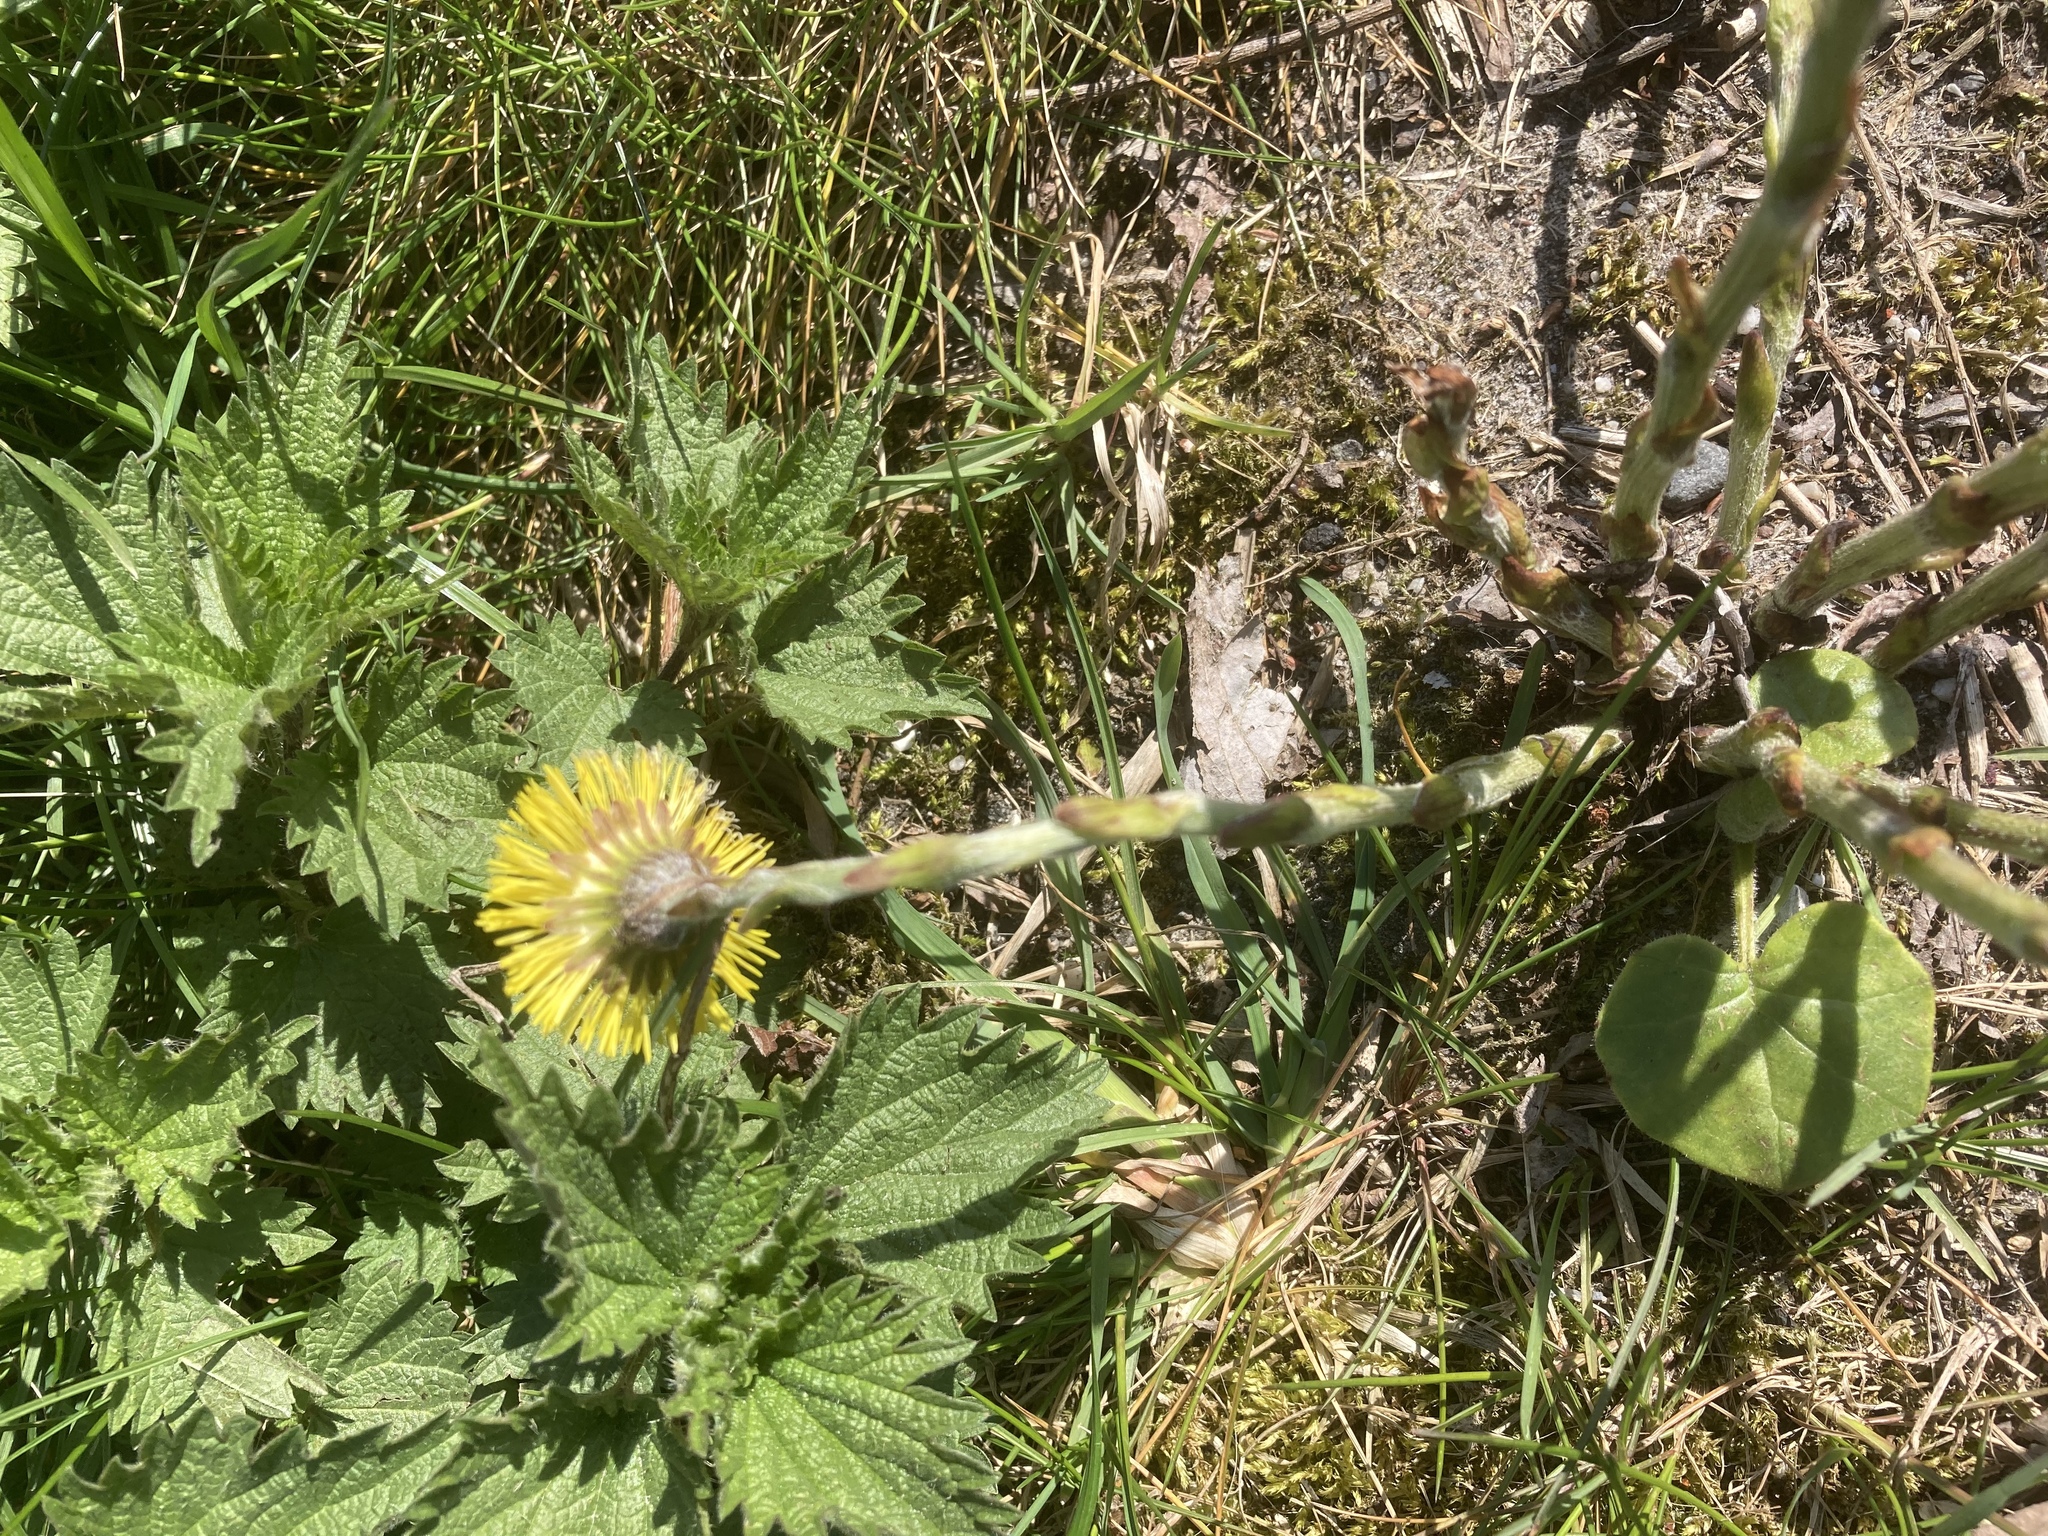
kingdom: Plantae
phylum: Tracheophyta
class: Magnoliopsida
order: Asterales
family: Asteraceae
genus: Tussilago
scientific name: Tussilago farfara
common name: Coltsfoot
